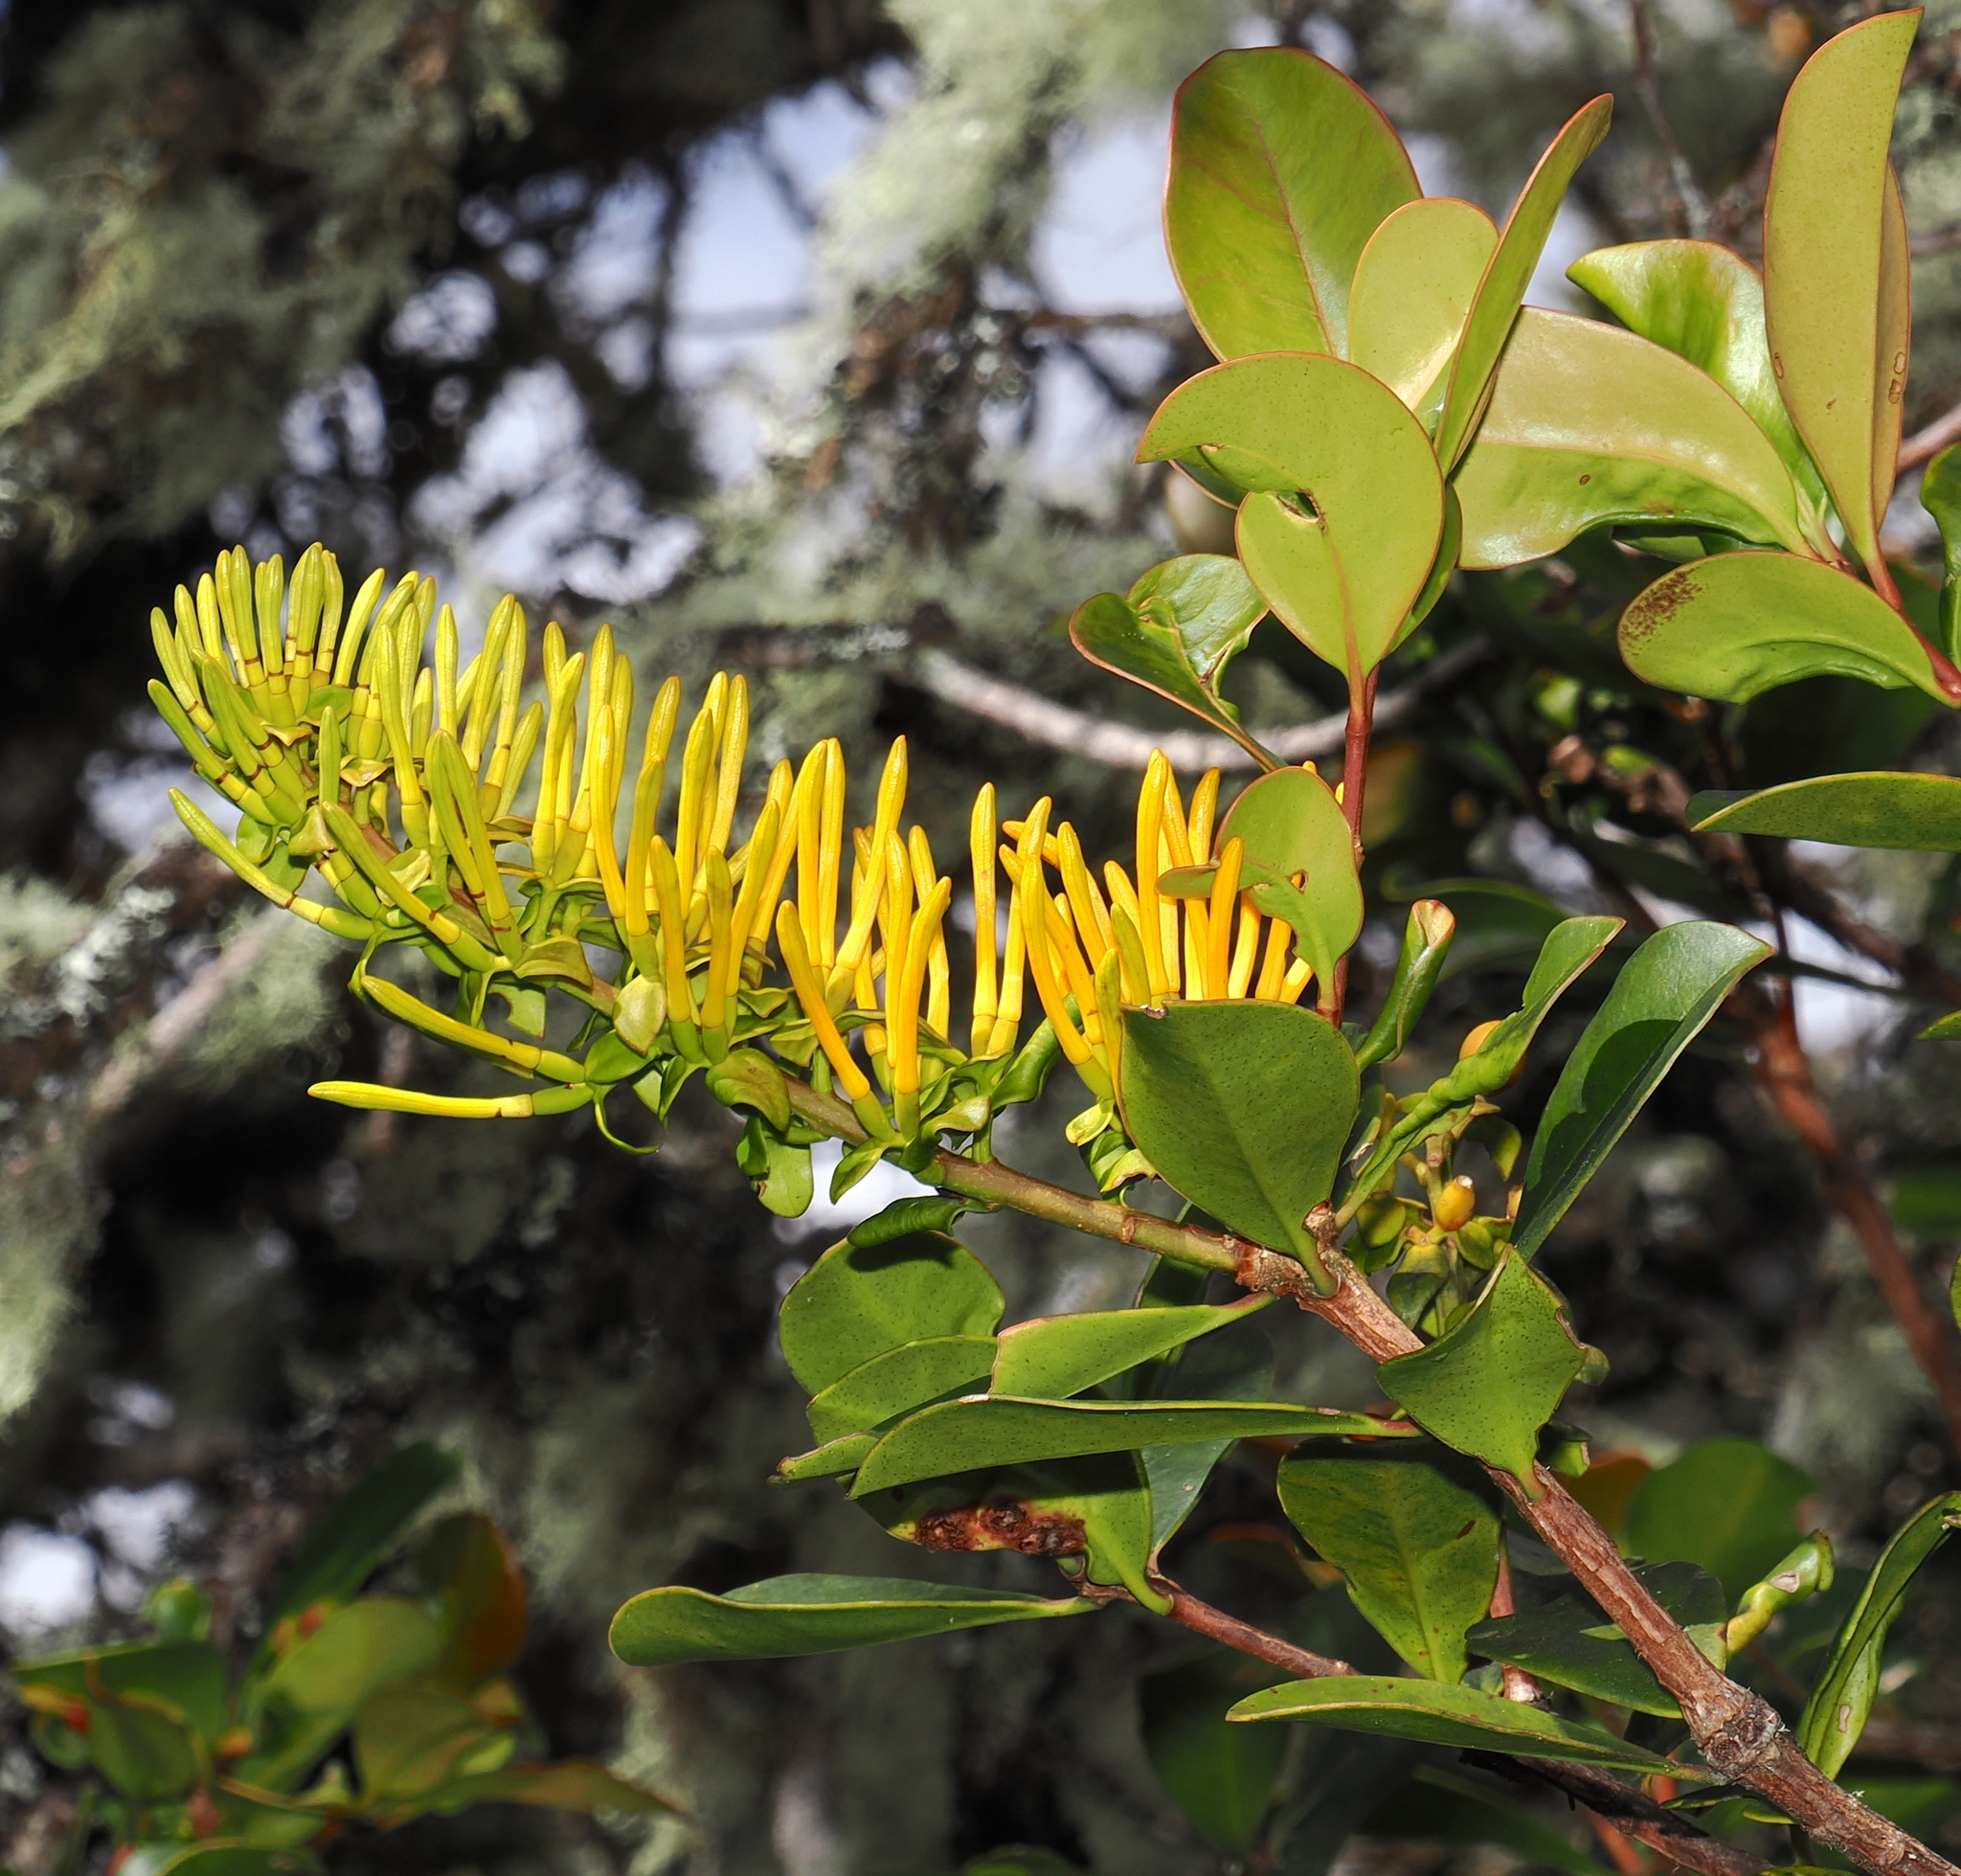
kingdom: Plantae
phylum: Tracheophyta
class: Magnoliopsida
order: Santalales
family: Loranthaceae
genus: Gaiadendron
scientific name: Gaiadendron punctatum
